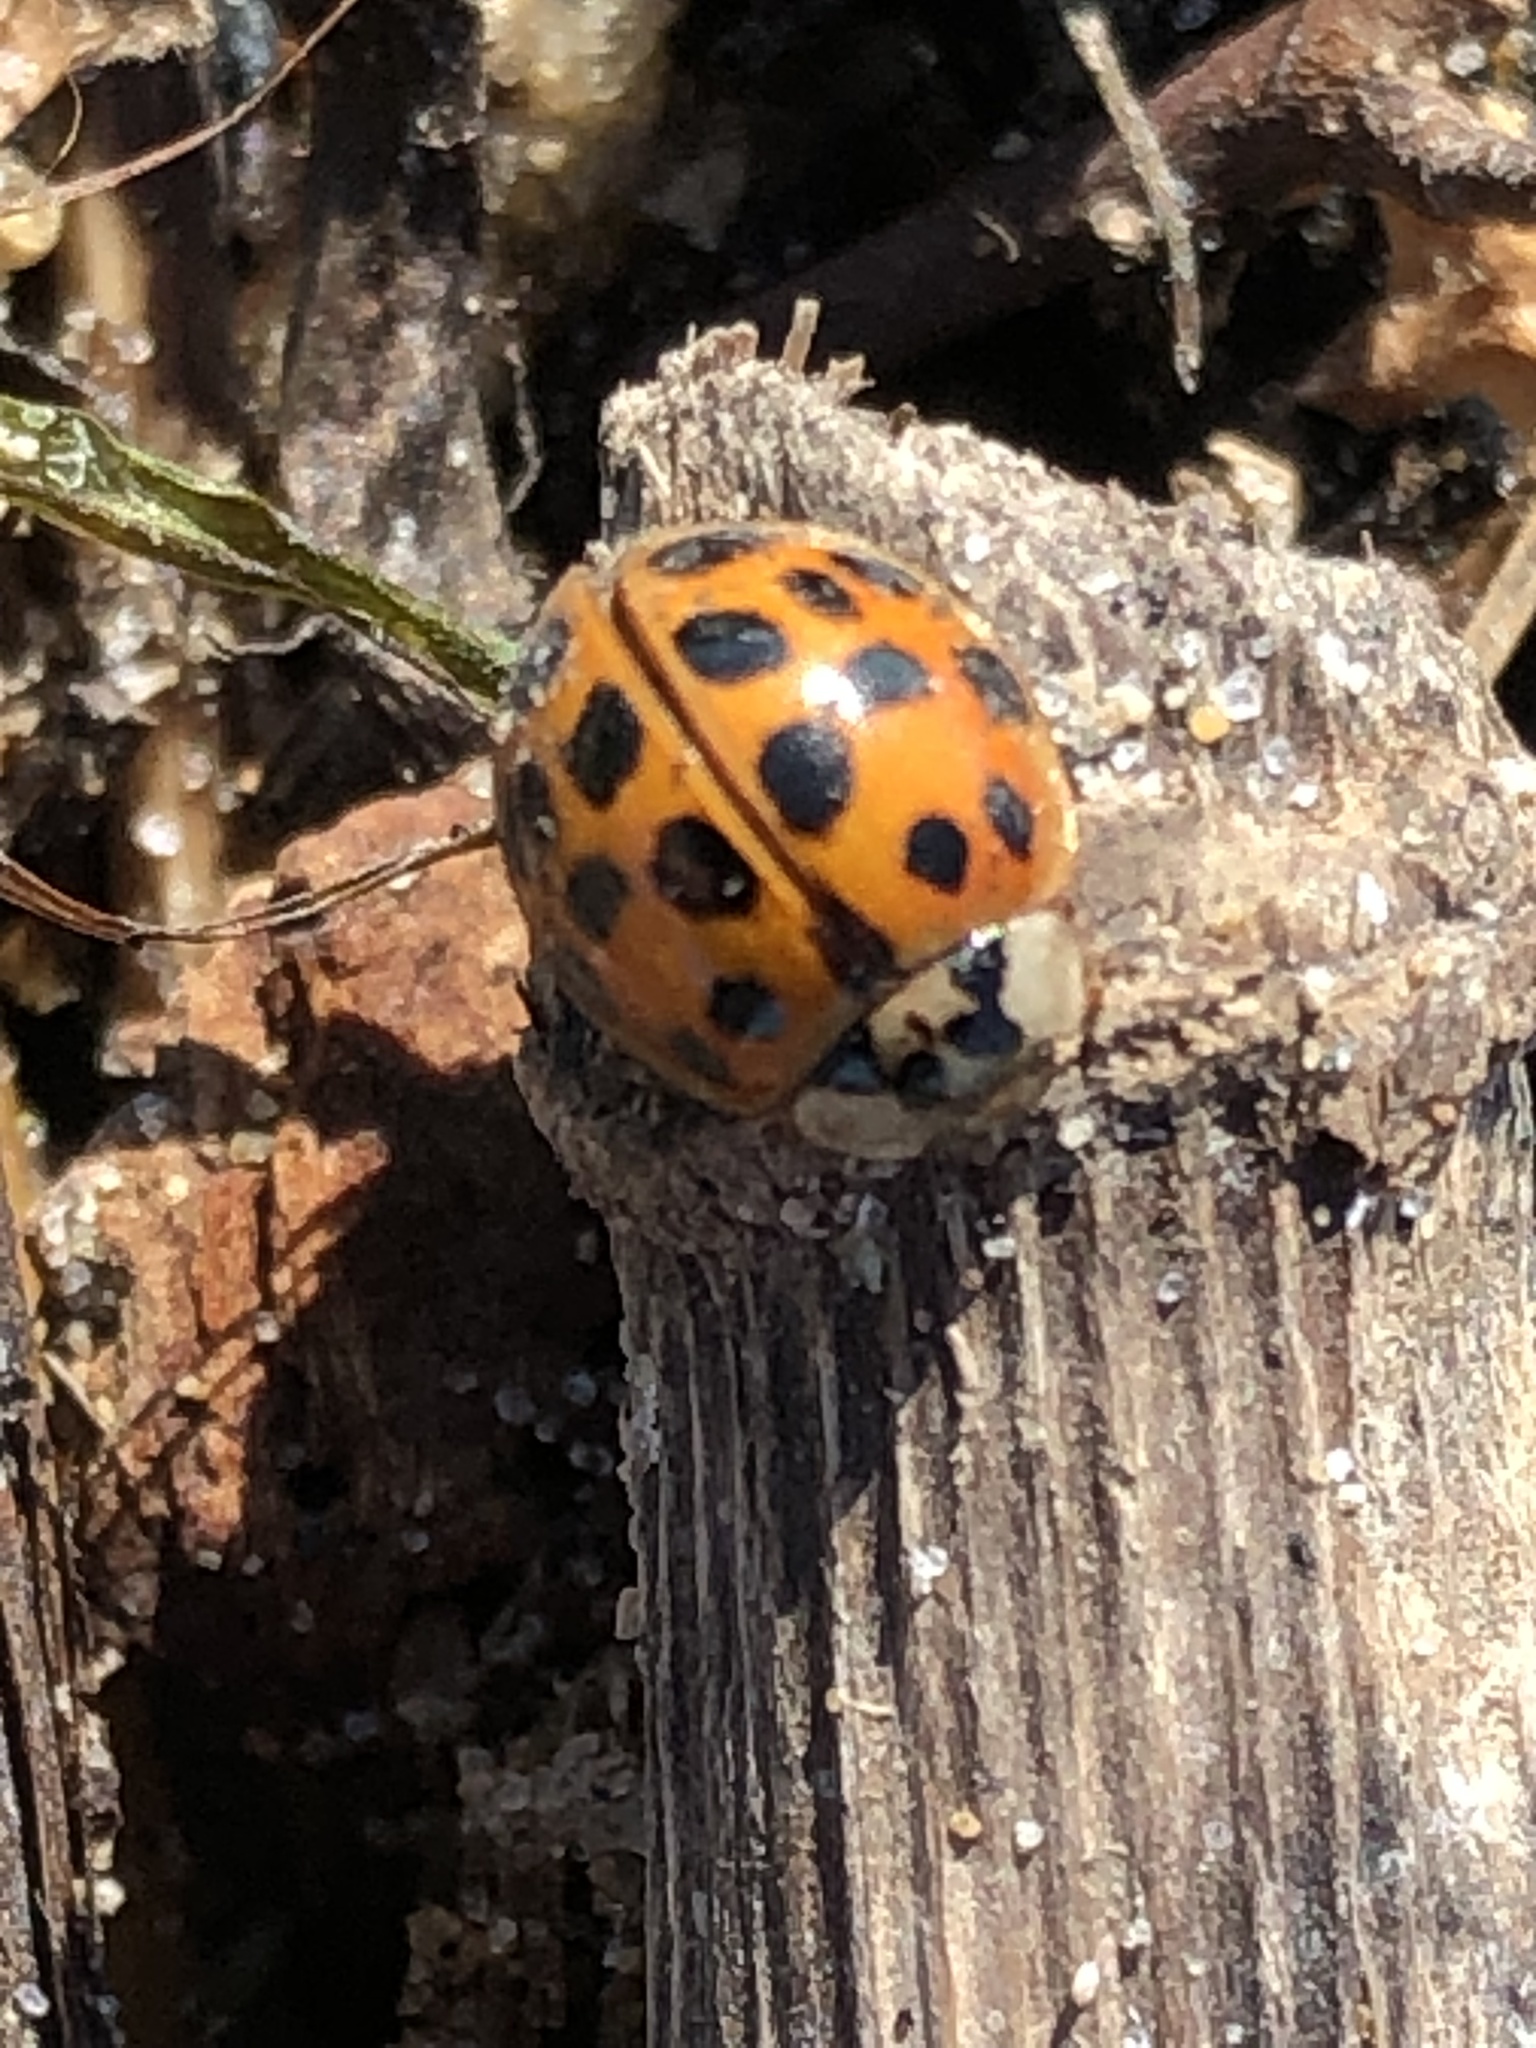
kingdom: Animalia
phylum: Arthropoda
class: Insecta
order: Coleoptera
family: Coccinellidae
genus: Harmonia
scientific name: Harmonia axyridis
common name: Harlequin ladybird
